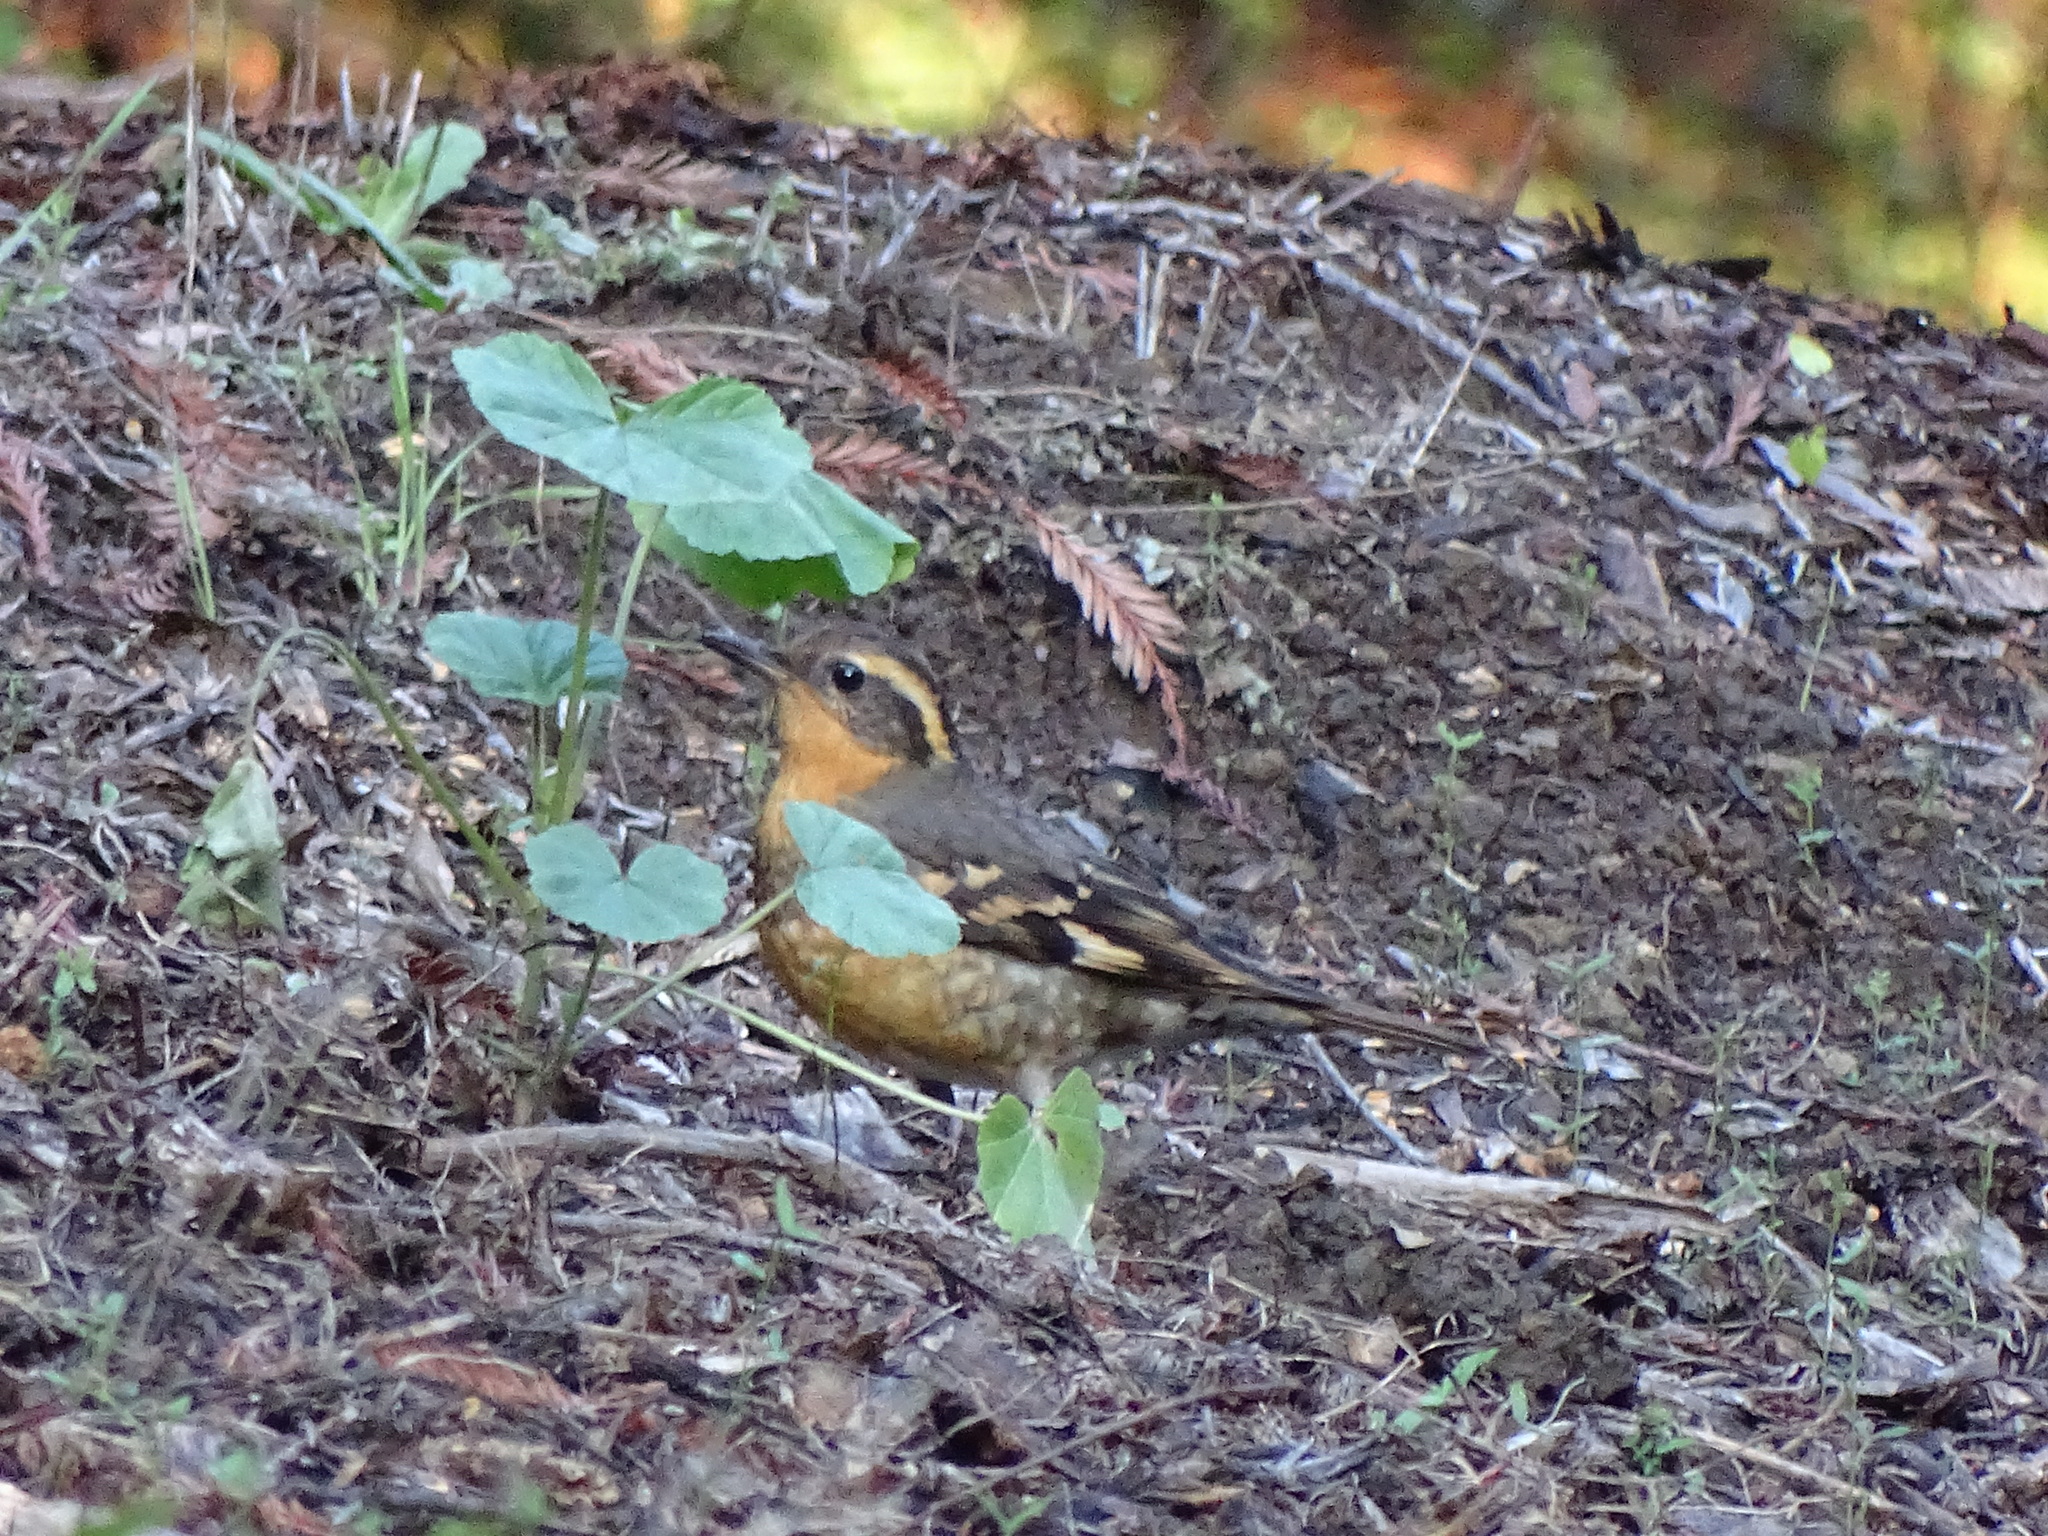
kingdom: Animalia
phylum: Chordata
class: Aves
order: Passeriformes
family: Turdidae
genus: Ixoreus
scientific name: Ixoreus naevius
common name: Varied thrush
